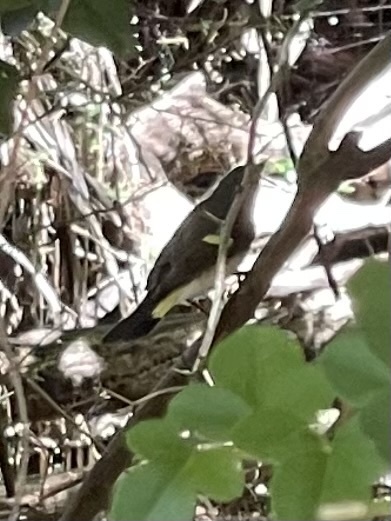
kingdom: Animalia
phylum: Chordata
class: Aves
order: Passeriformes
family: Parulidae
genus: Setophaga
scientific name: Setophaga ruticilla
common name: American redstart
